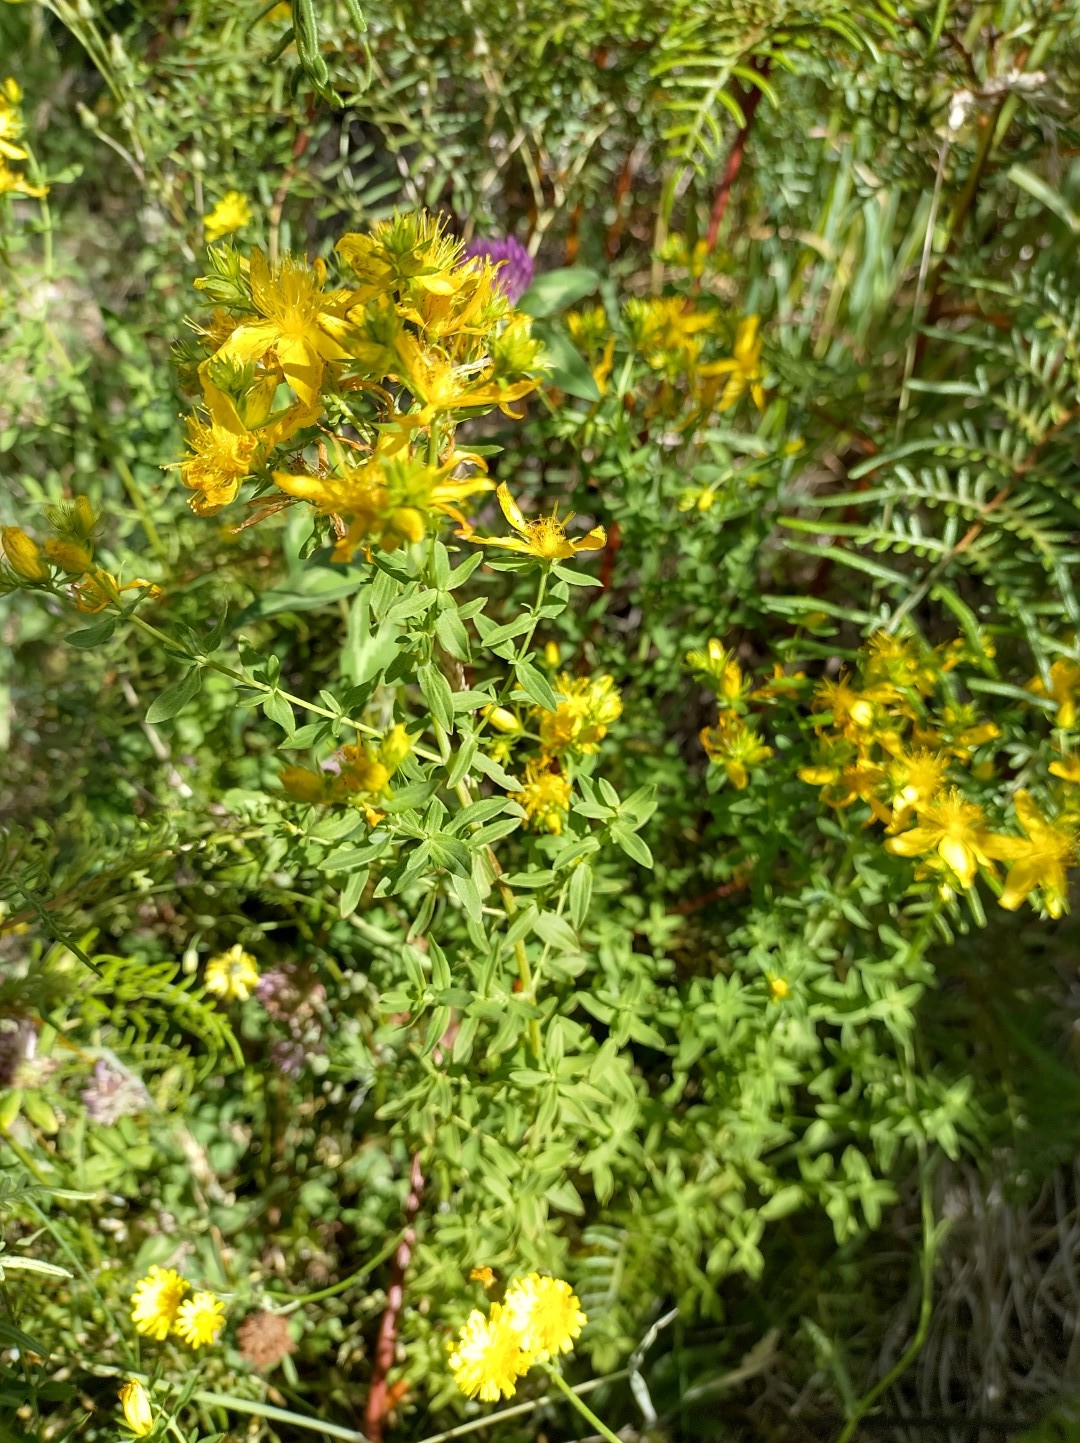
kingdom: Plantae
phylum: Tracheophyta
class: Magnoliopsida
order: Malpighiales
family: Hypericaceae
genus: Hypericum
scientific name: Hypericum perforatum
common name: Common st. johnswort
